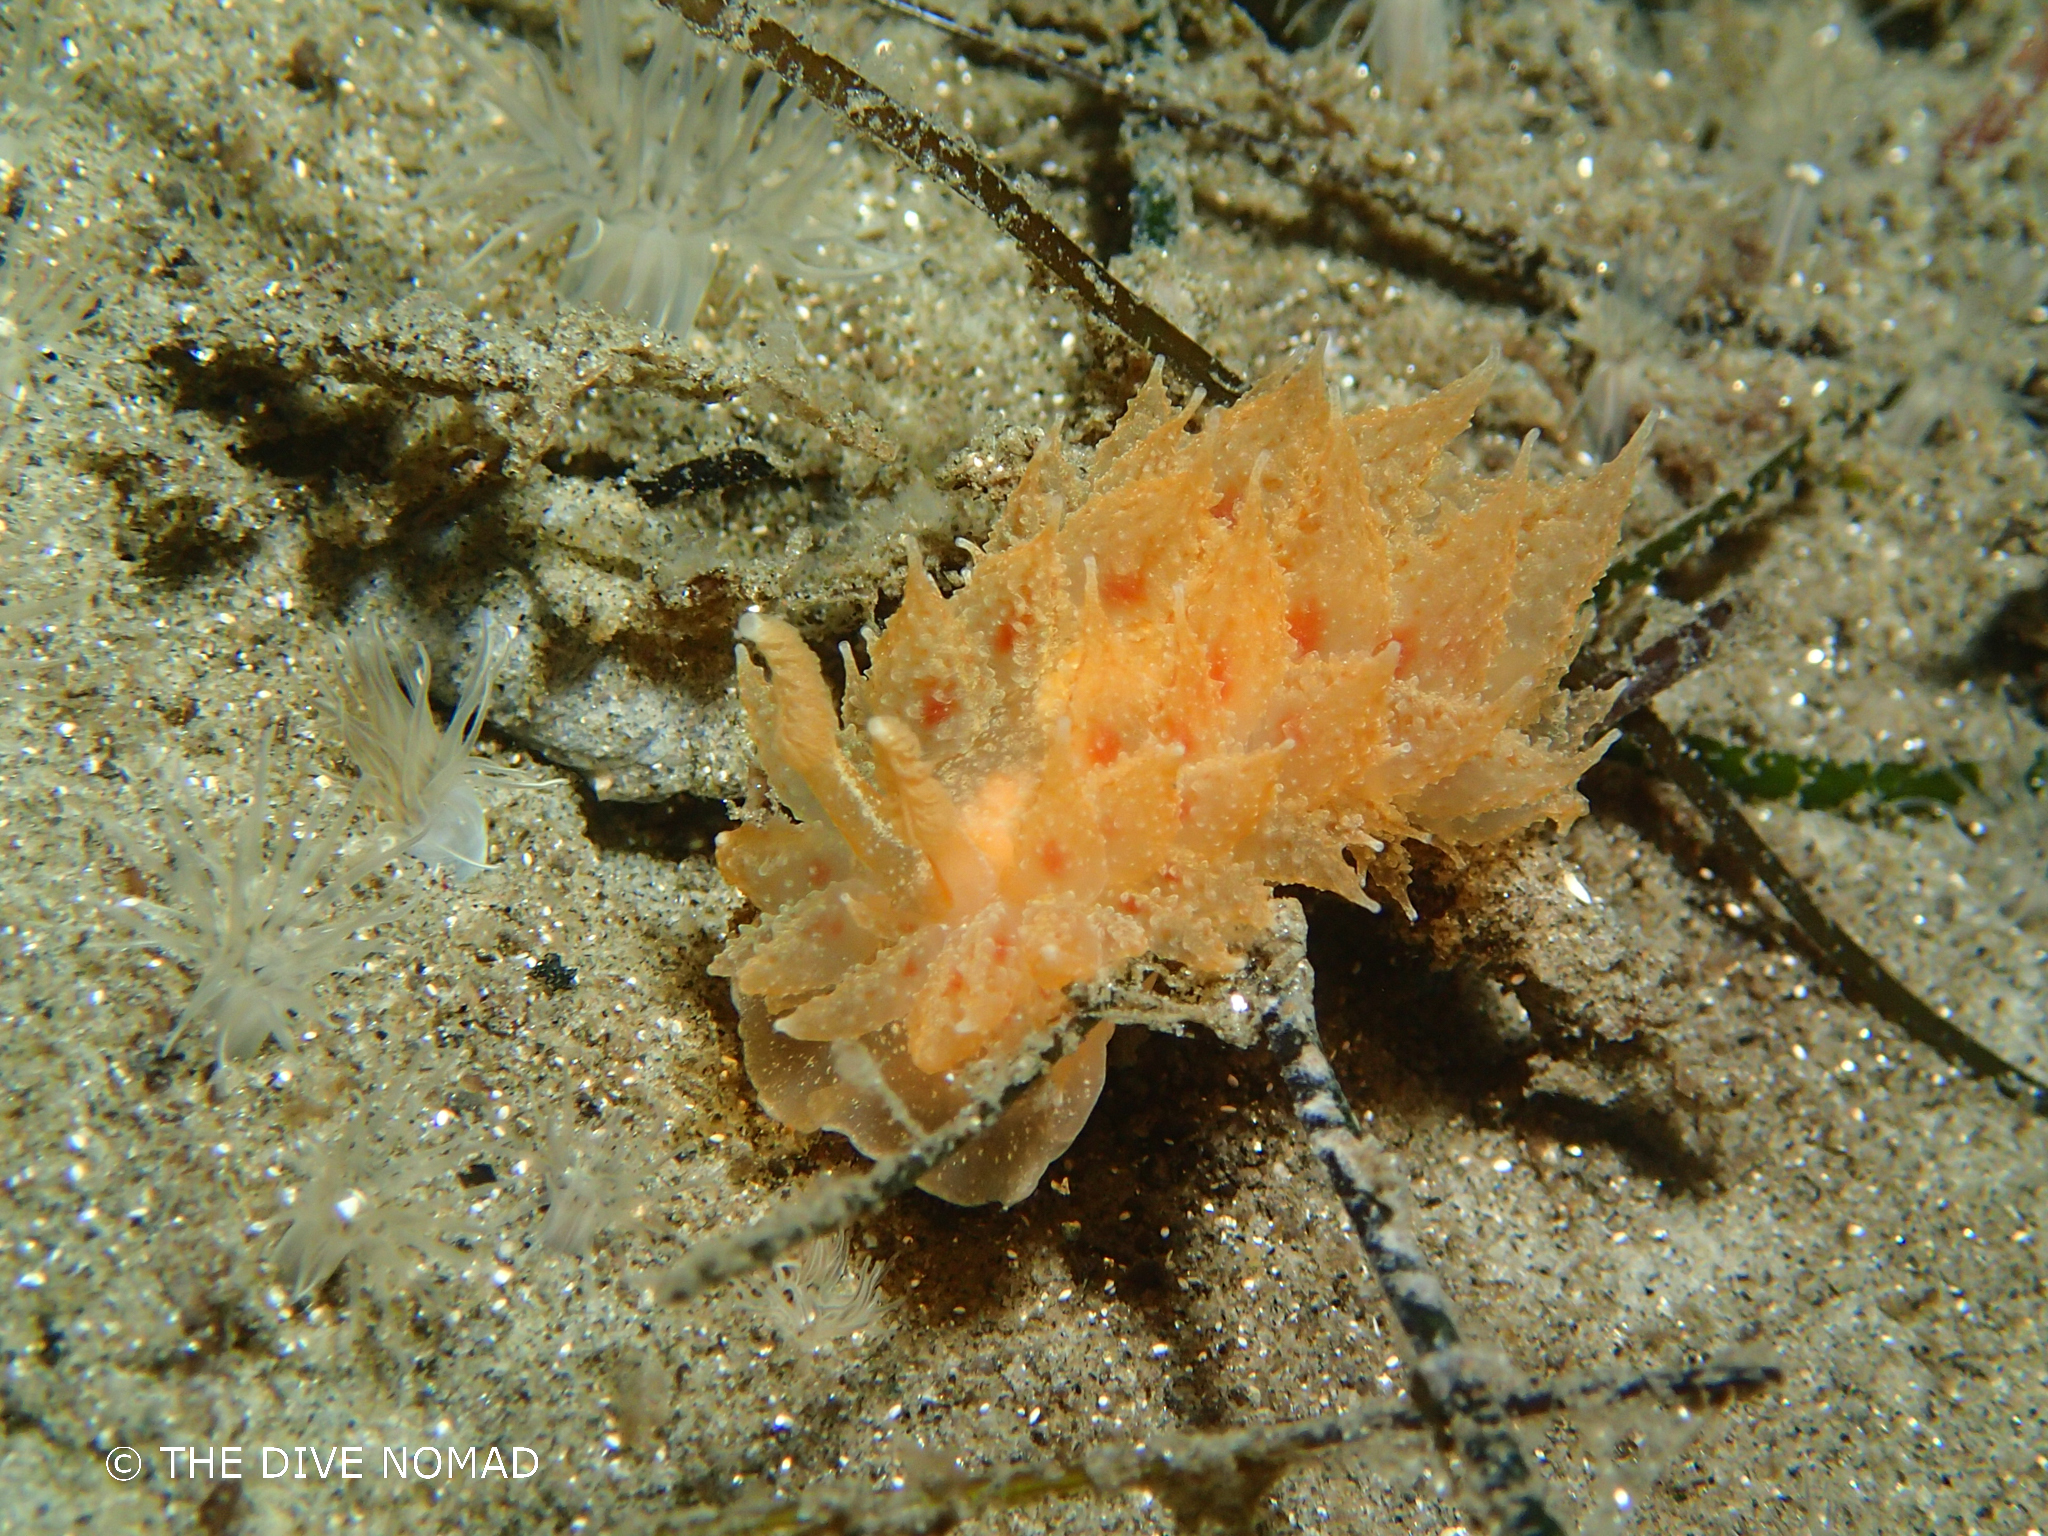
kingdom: Animalia
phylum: Mollusca
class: Gastropoda
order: Nudibranchia
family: Dironidae
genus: Dirona
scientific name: Dirona picta
